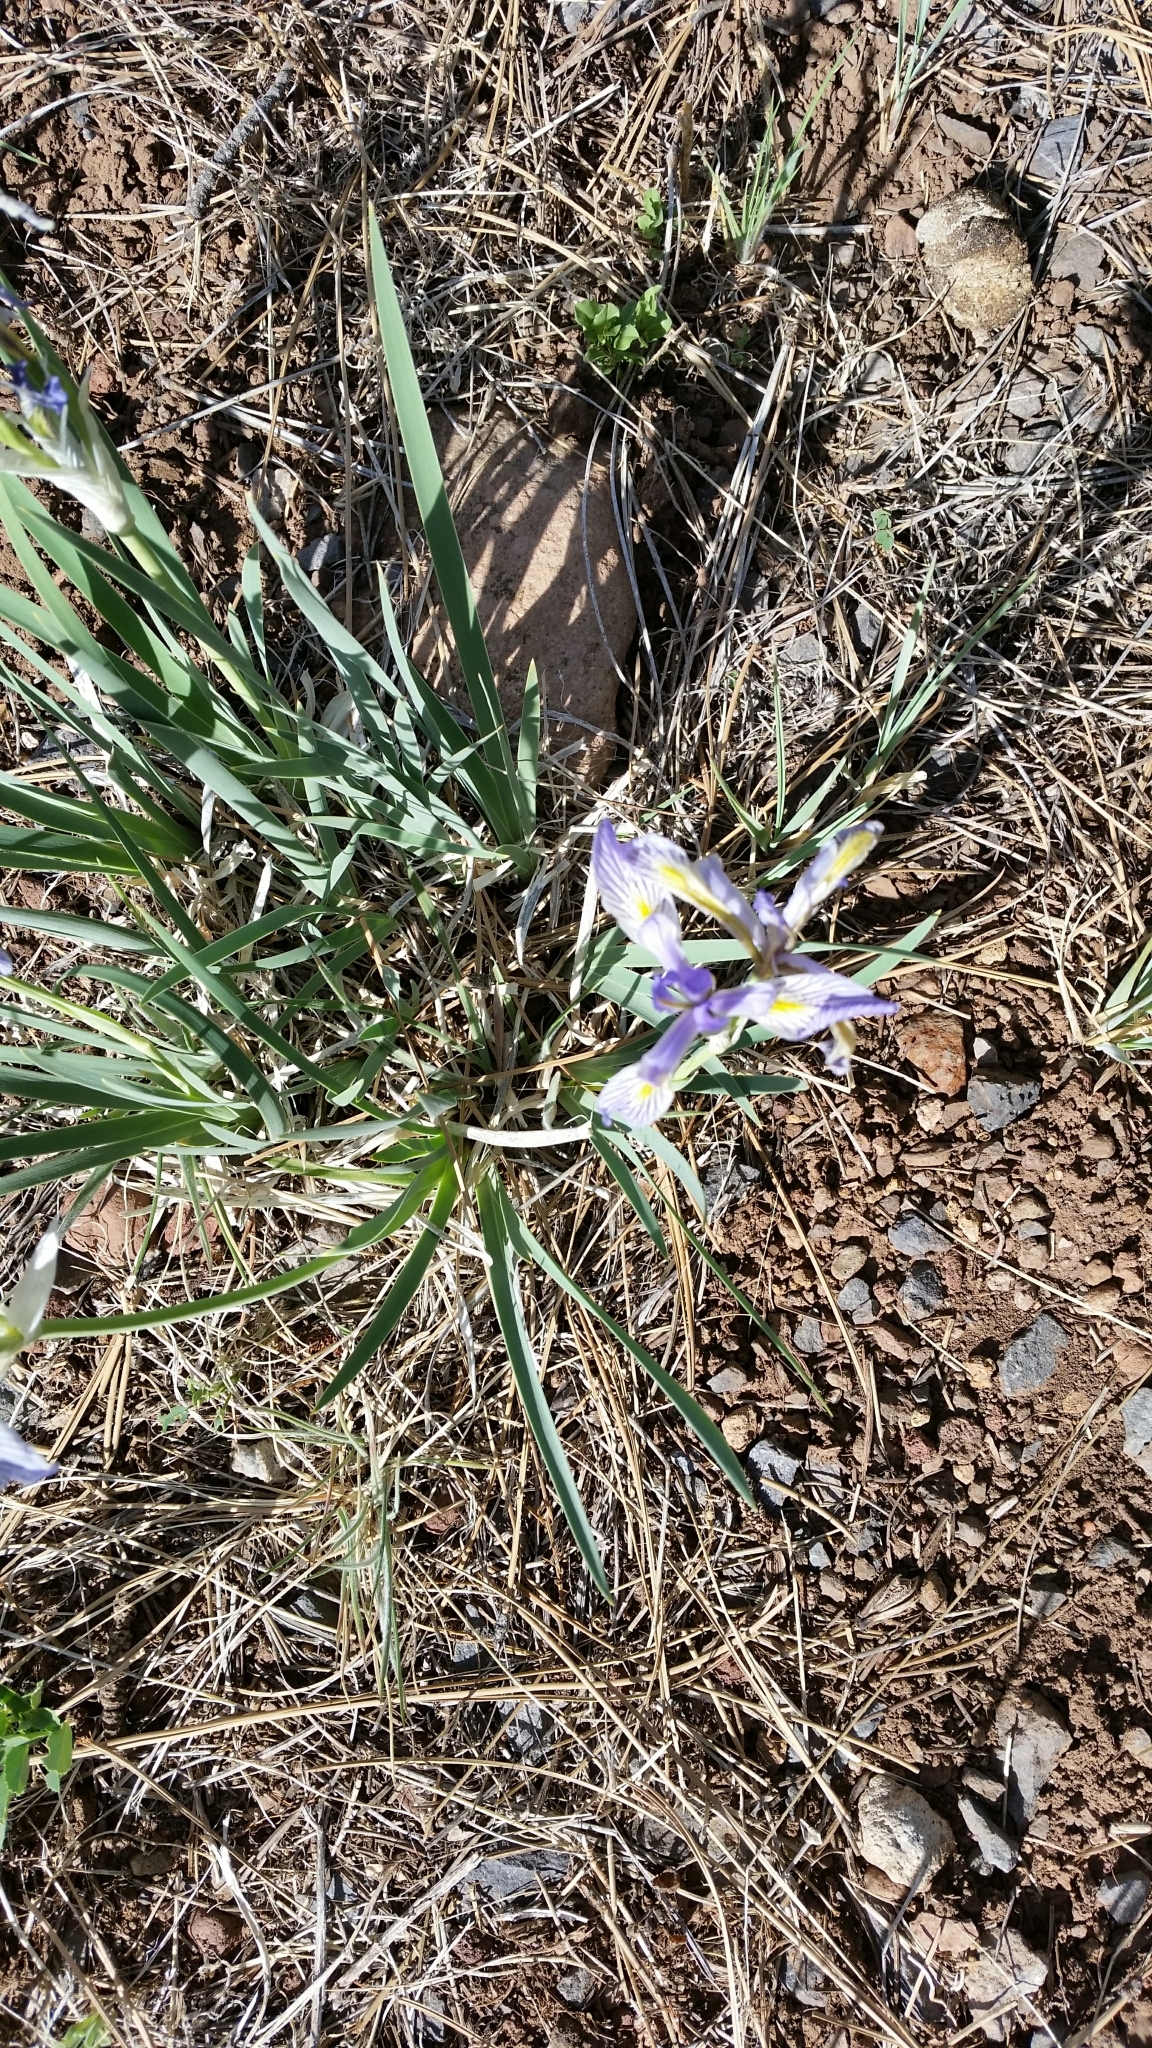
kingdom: Plantae
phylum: Tracheophyta
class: Liliopsida
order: Asparagales
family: Iridaceae
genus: Iris
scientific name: Iris missouriensis
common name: Rocky mountain iris
